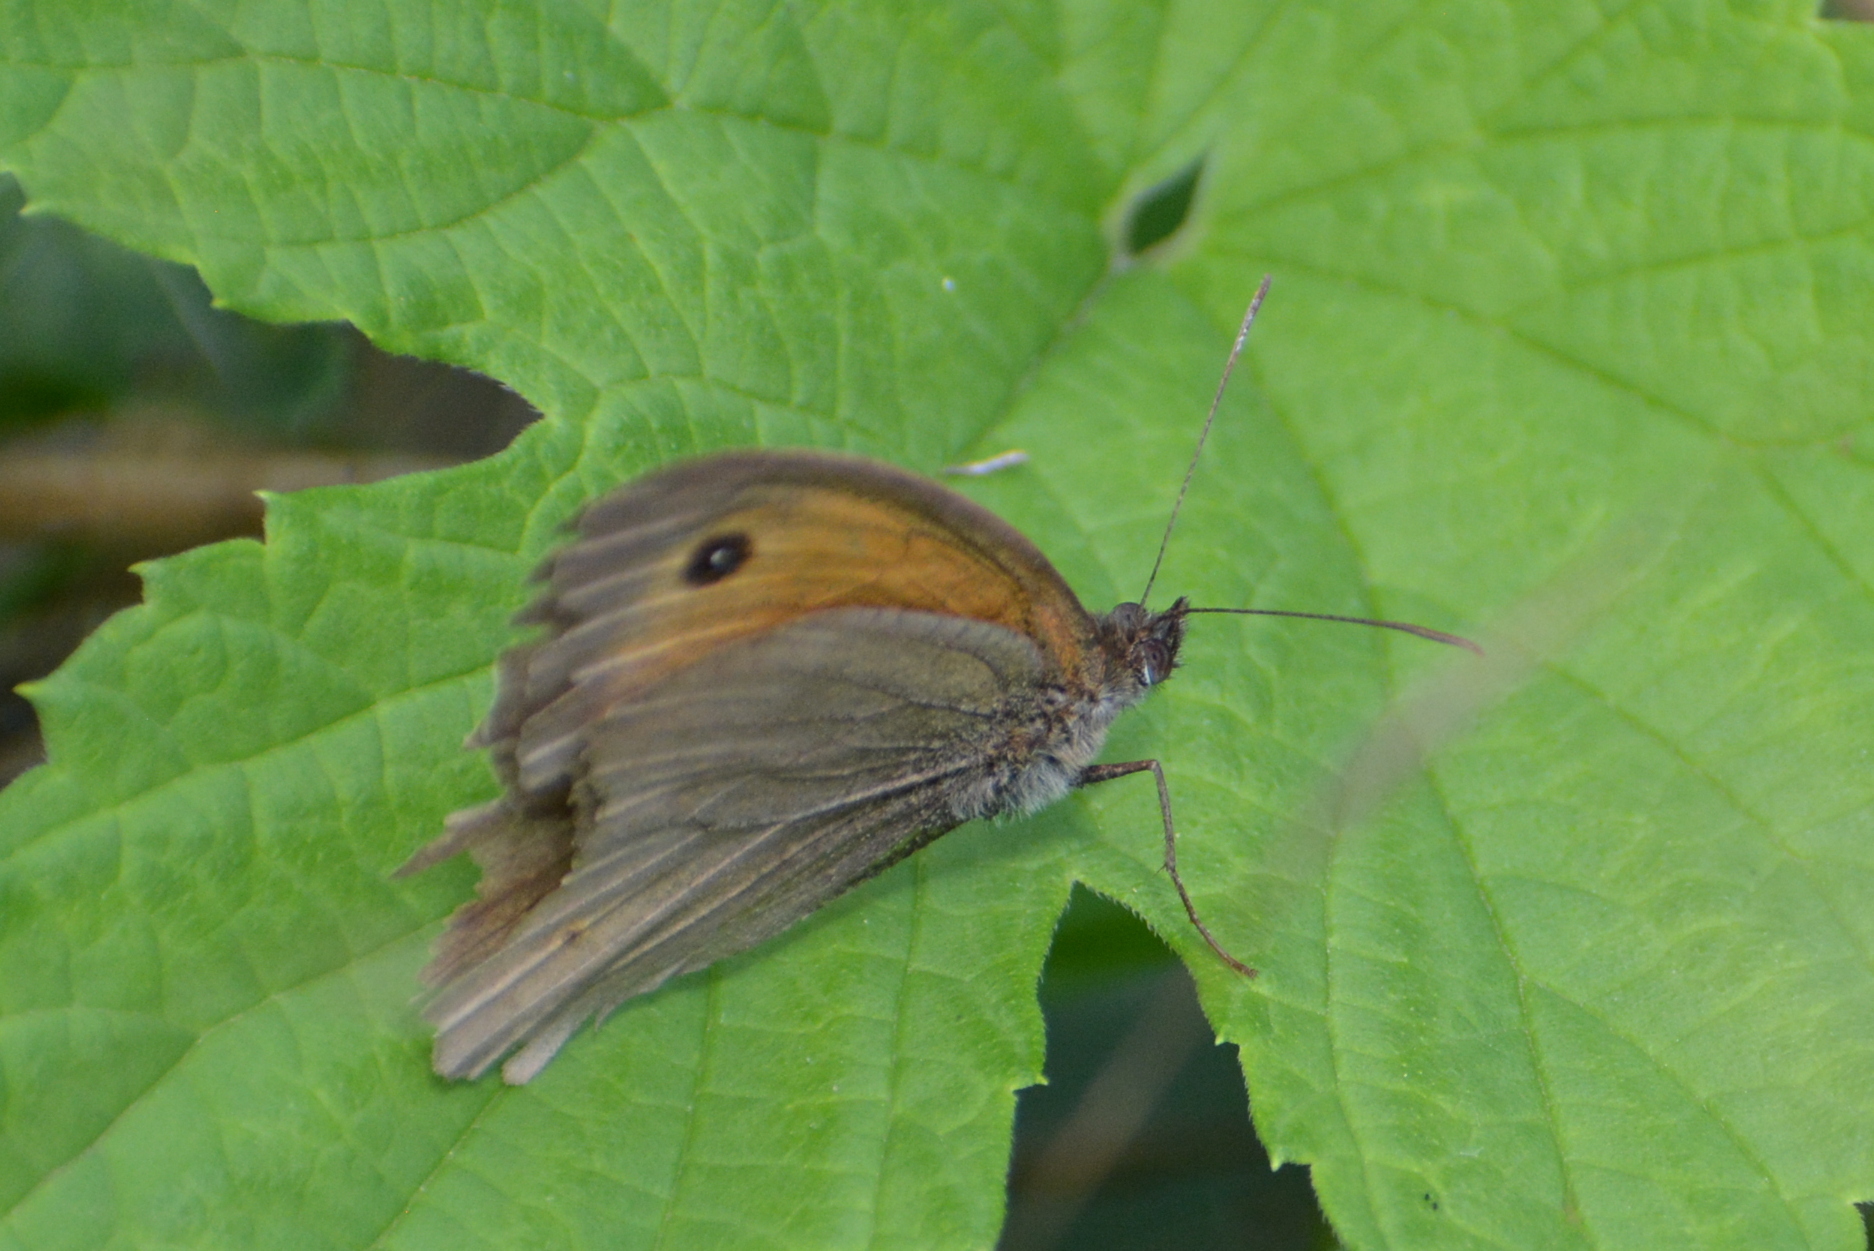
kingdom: Animalia
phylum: Arthropoda
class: Insecta
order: Lepidoptera
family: Nymphalidae
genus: Maniola
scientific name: Maniola jurtina
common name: Meadow brown
